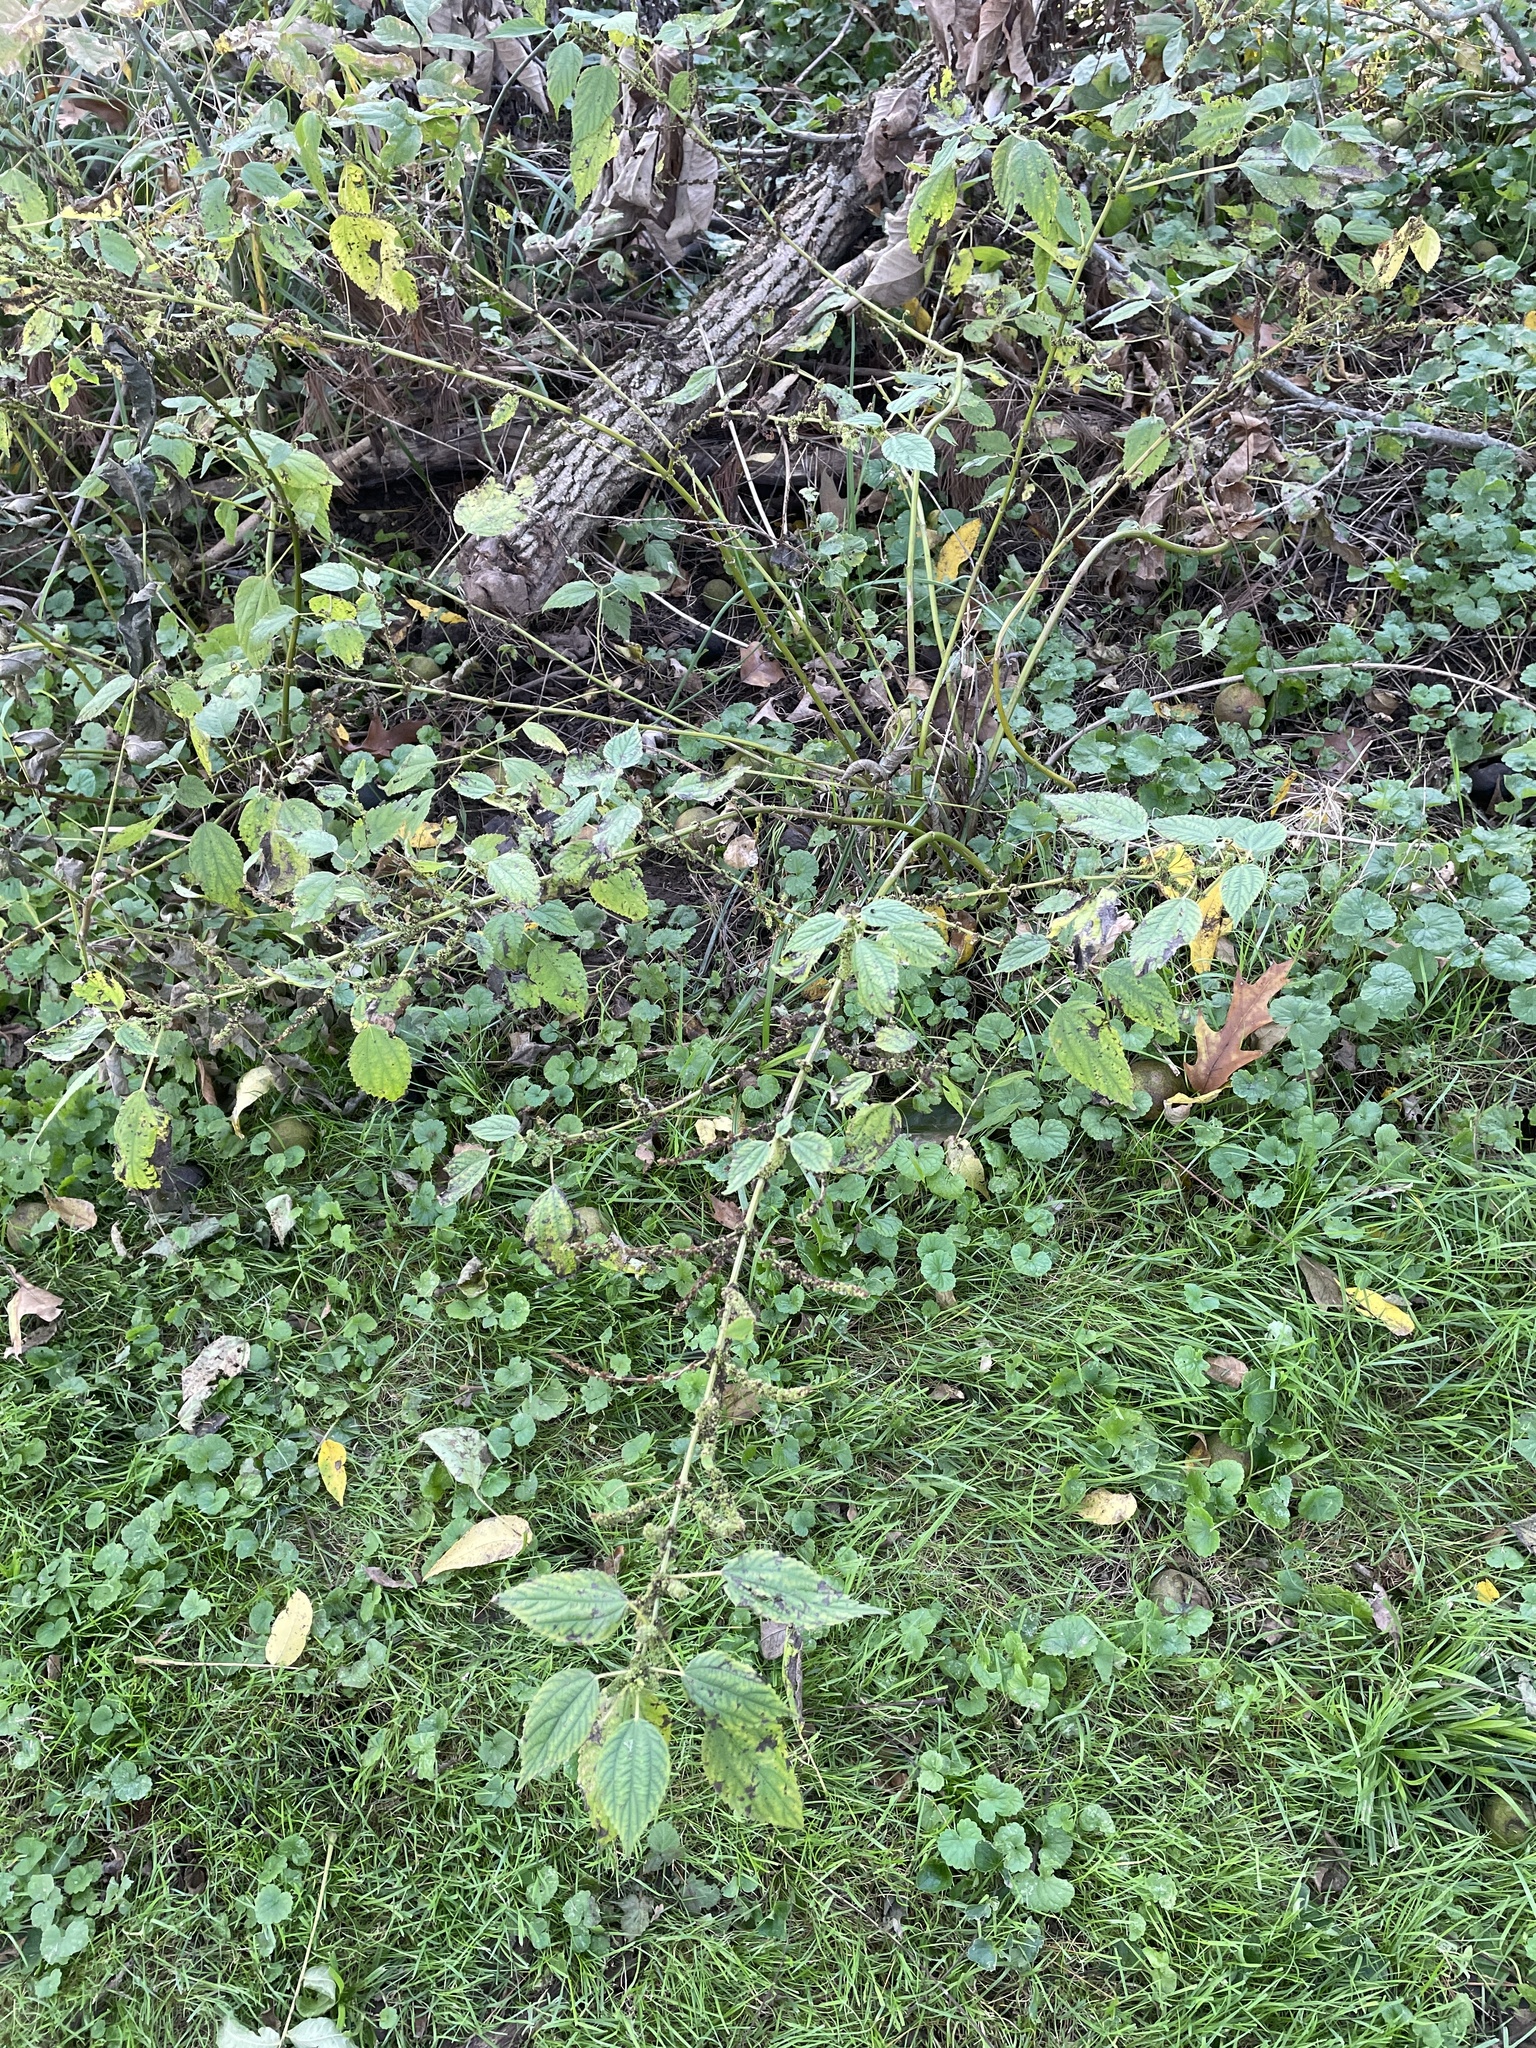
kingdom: Plantae
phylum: Tracheophyta
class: Magnoliopsida
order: Rosales
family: Urticaceae
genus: Boehmeria
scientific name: Boehmeria cylindrica
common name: Bog-hemp
